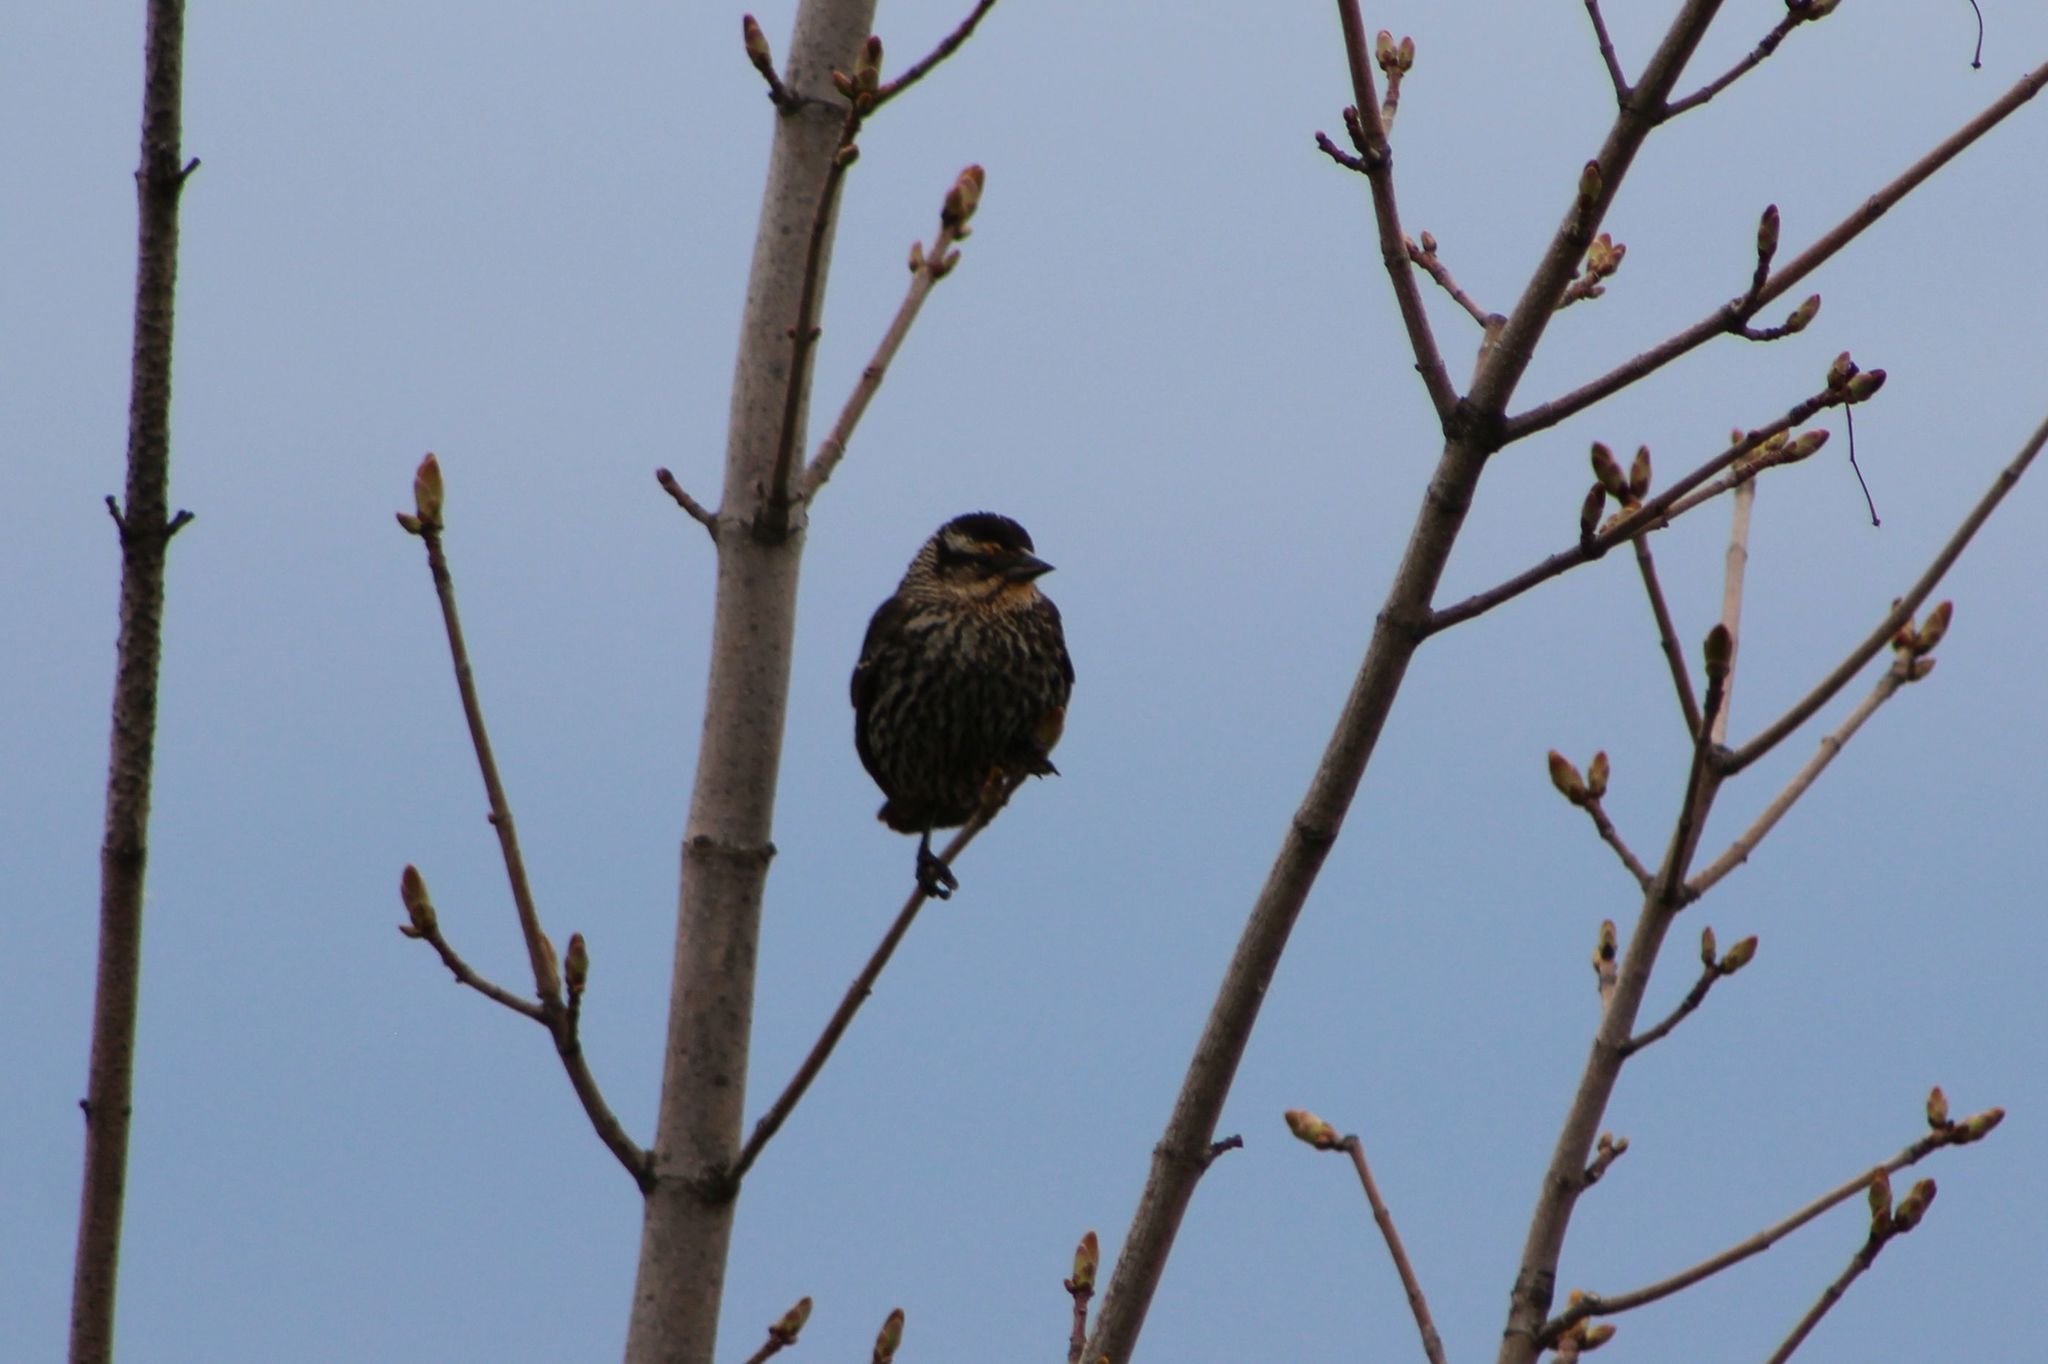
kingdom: Animalia
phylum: Chordata
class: Aves
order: Passeriformes
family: Icteridae
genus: Agelaius
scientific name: Agelaius phoeniceus
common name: Red-winged blackbird
